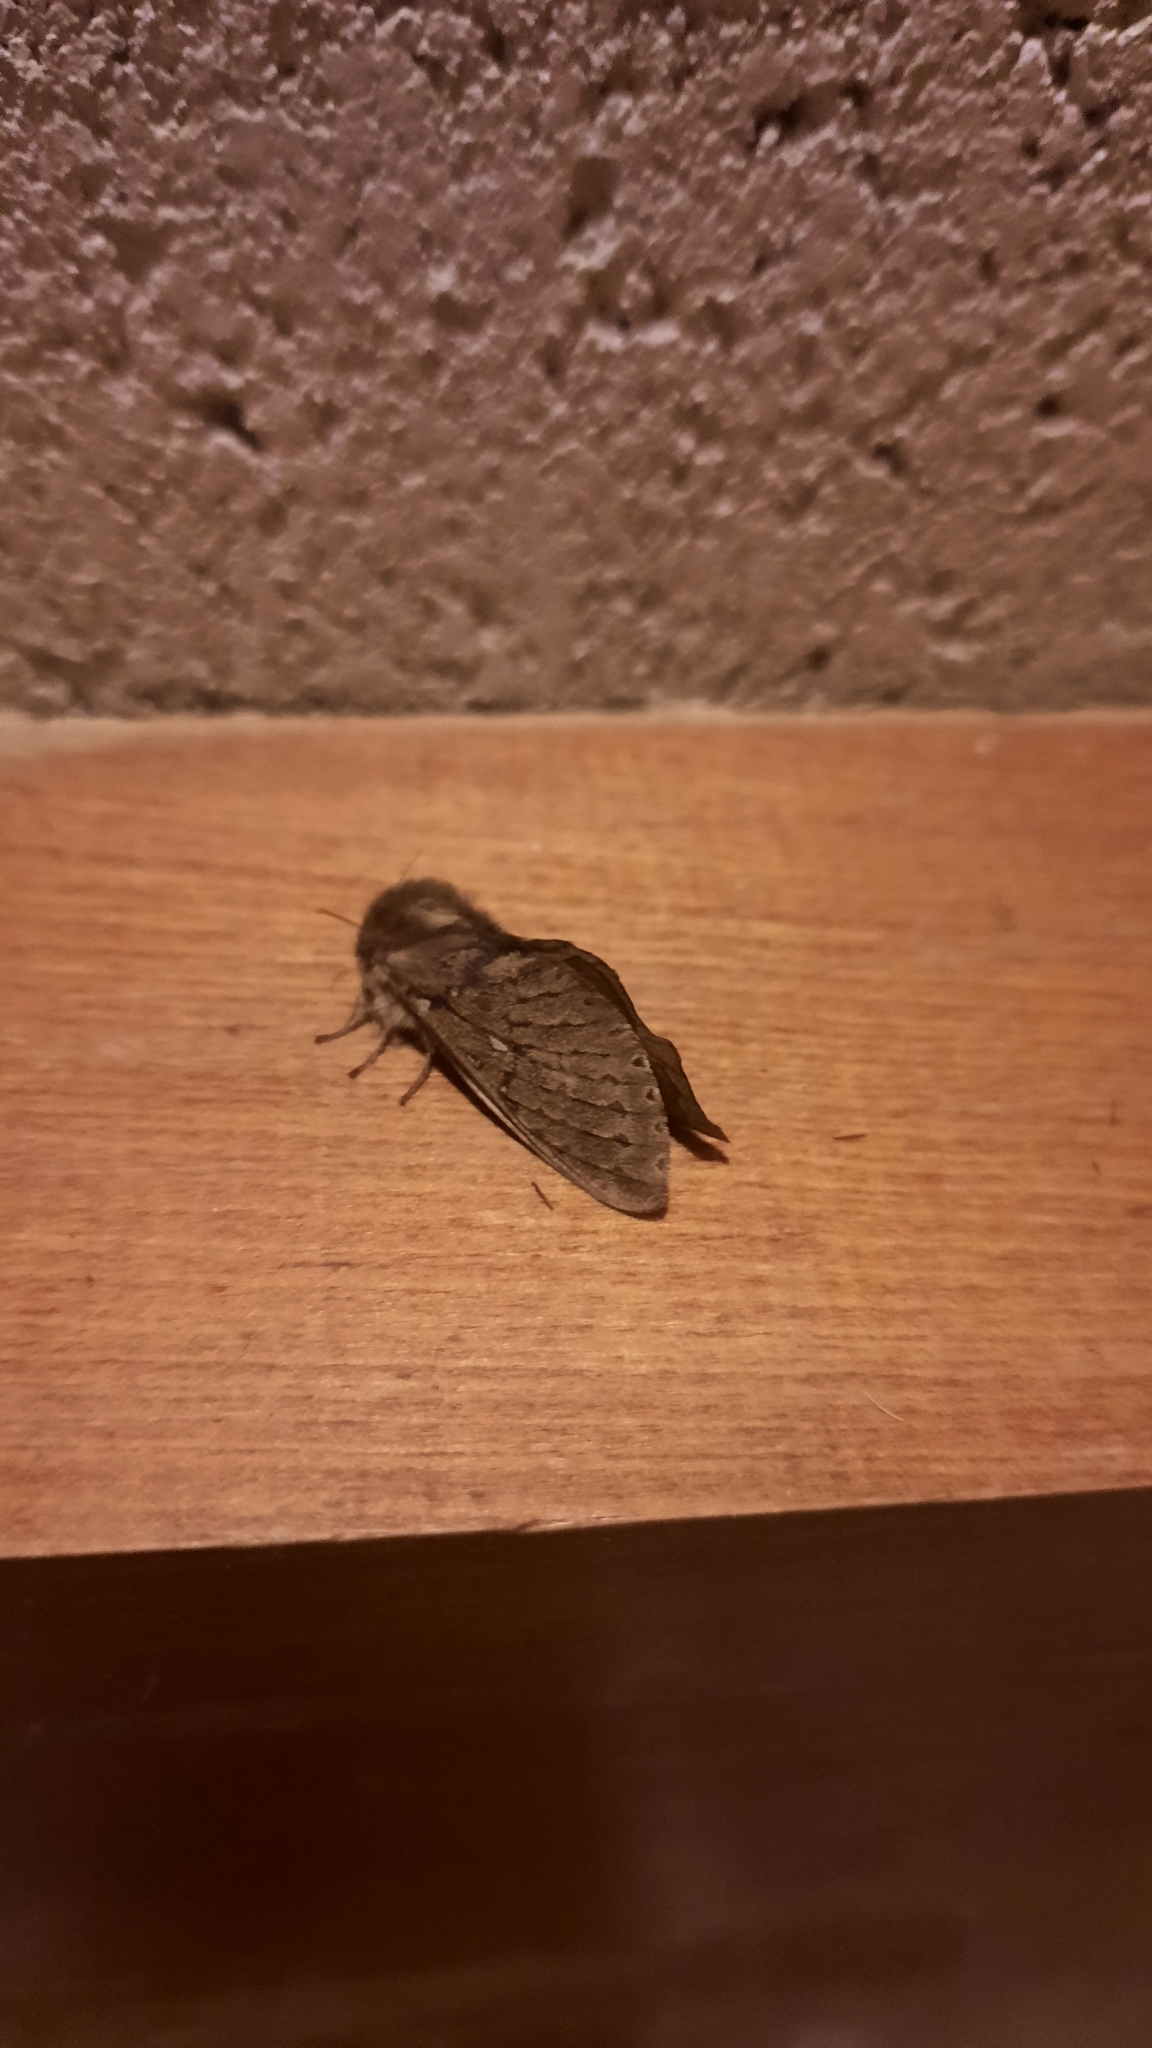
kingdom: Animalia
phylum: Arthropoda
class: Insecta
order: Lepidoptera
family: Hepialidae
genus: Wiseana
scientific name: Wiseana cervinata
